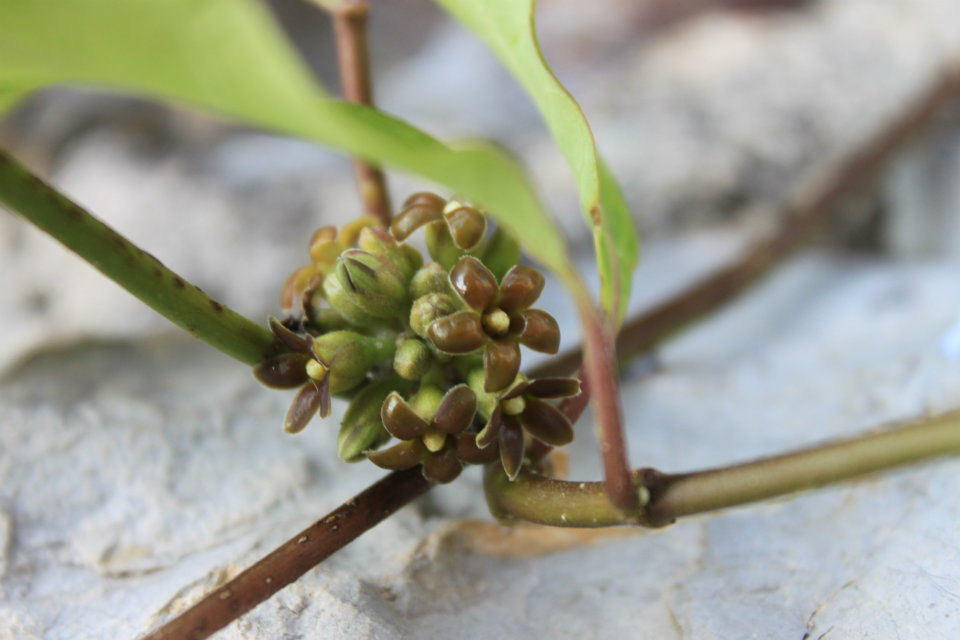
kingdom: Plantae
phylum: Tracheophyta
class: Magnoliopsida
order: Gentianales
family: Apocynaceae
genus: Ruehssia
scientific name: Ruehssia zimapanica
